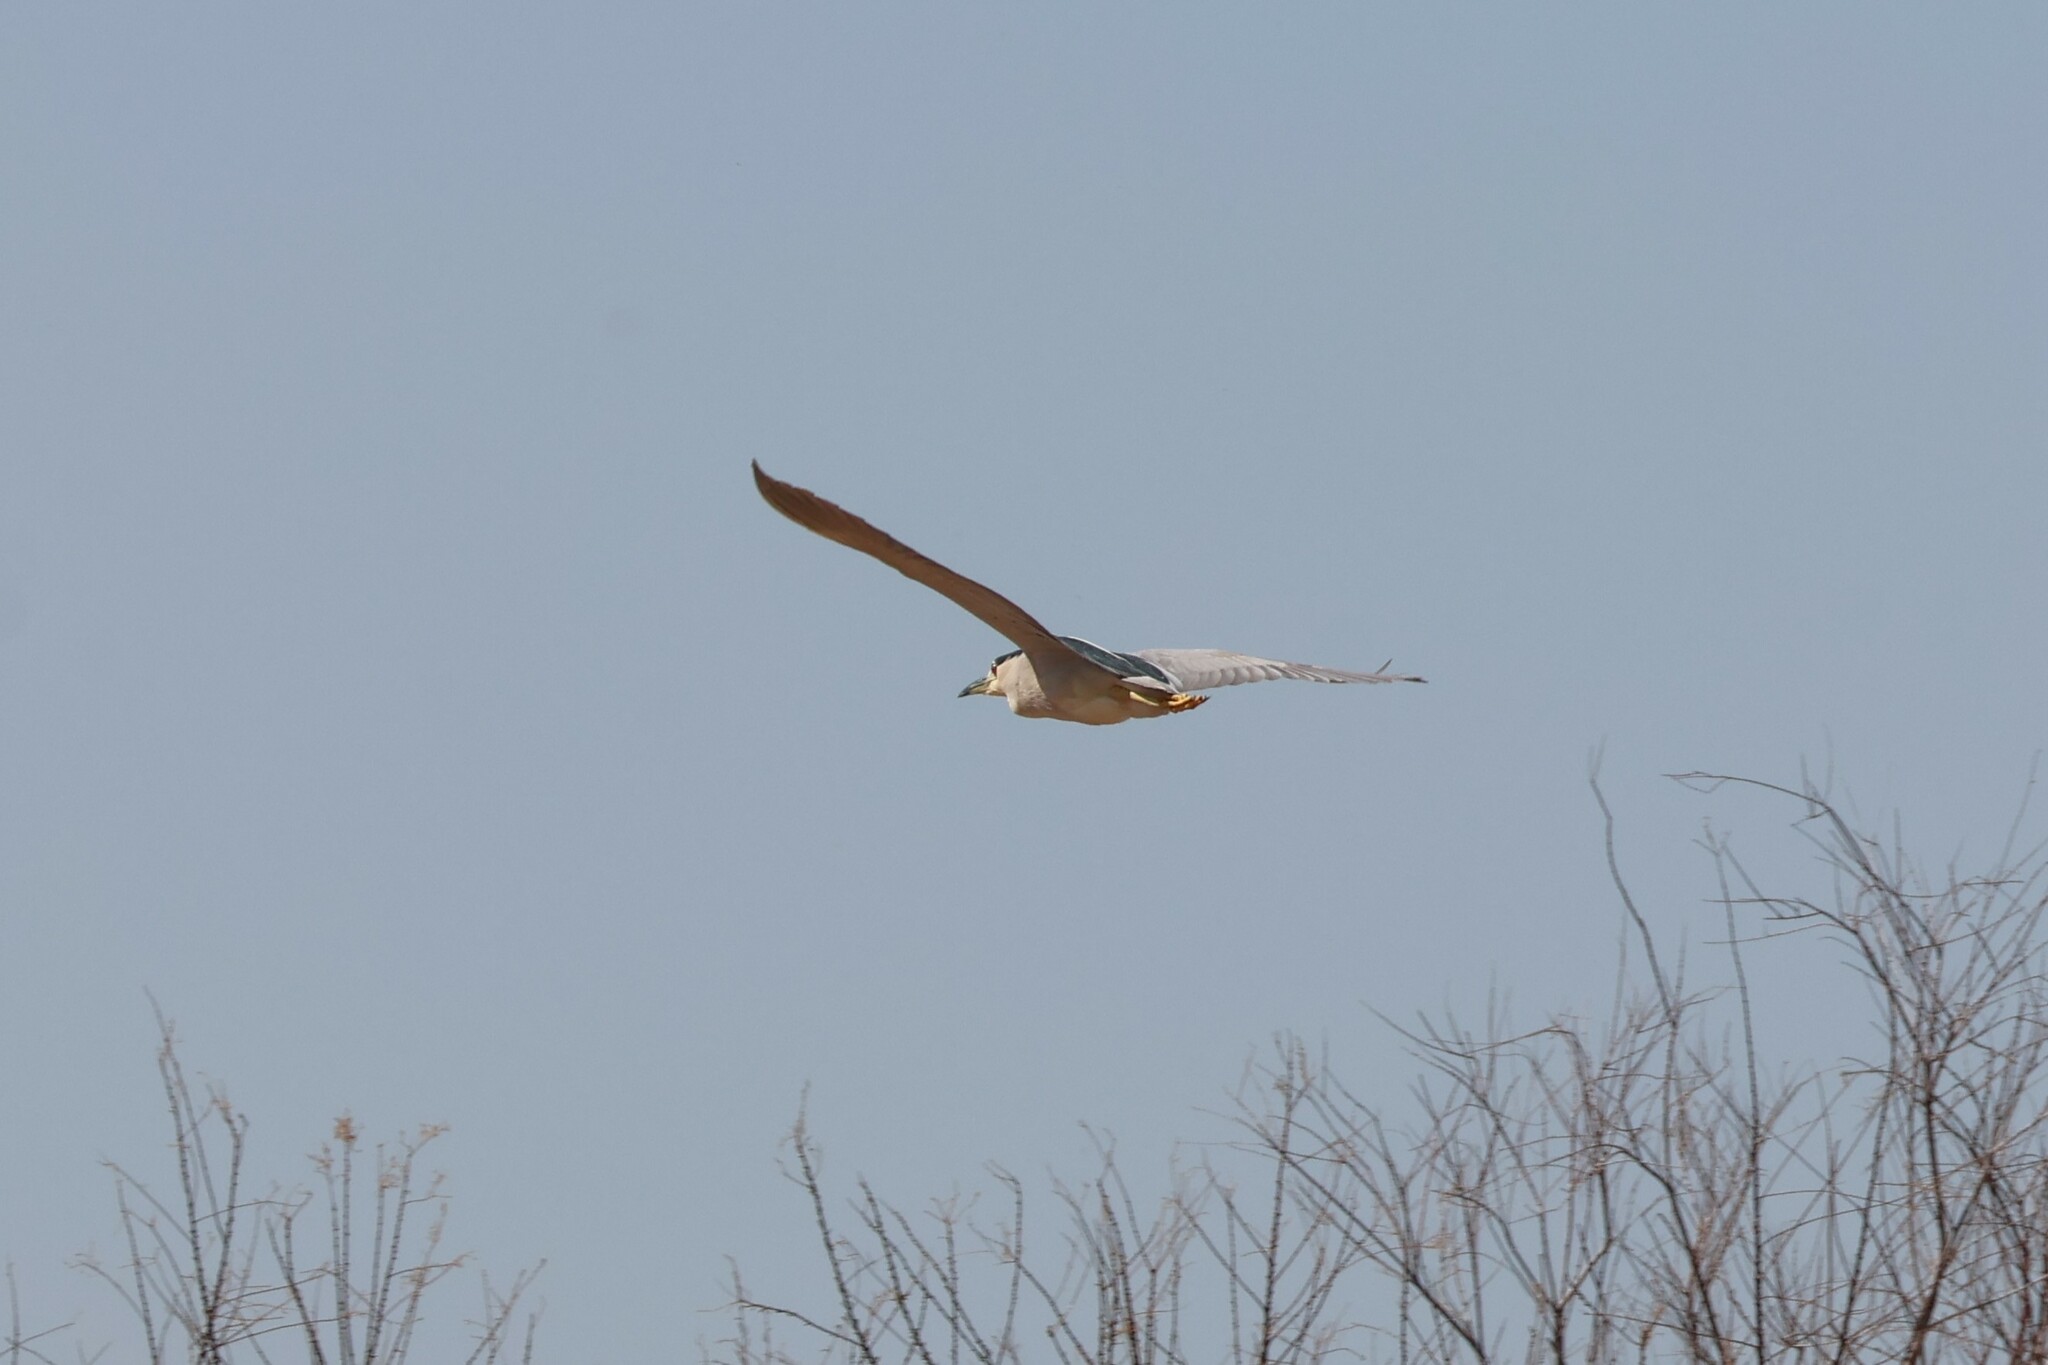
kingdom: Animalia
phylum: Chordata
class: Aves
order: Pelecaniformes
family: Ardeidae
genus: Nycticorax
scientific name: Nycticorax nycticorax
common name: Black-crowned night heron
